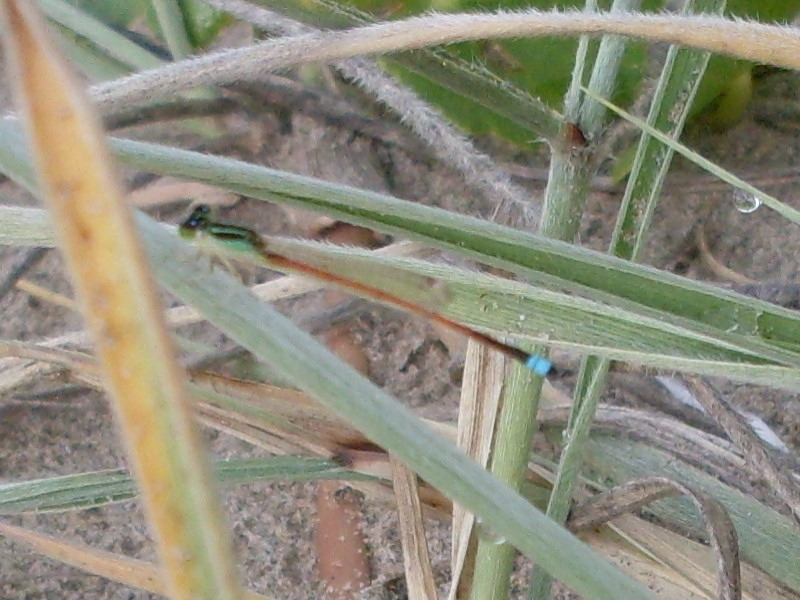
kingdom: Animalia
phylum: Arthropoda
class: Insecta
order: Odonata
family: Coenagrionidae
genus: Ischnura
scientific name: Ischnura aurora
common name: Gossamer damselfly
